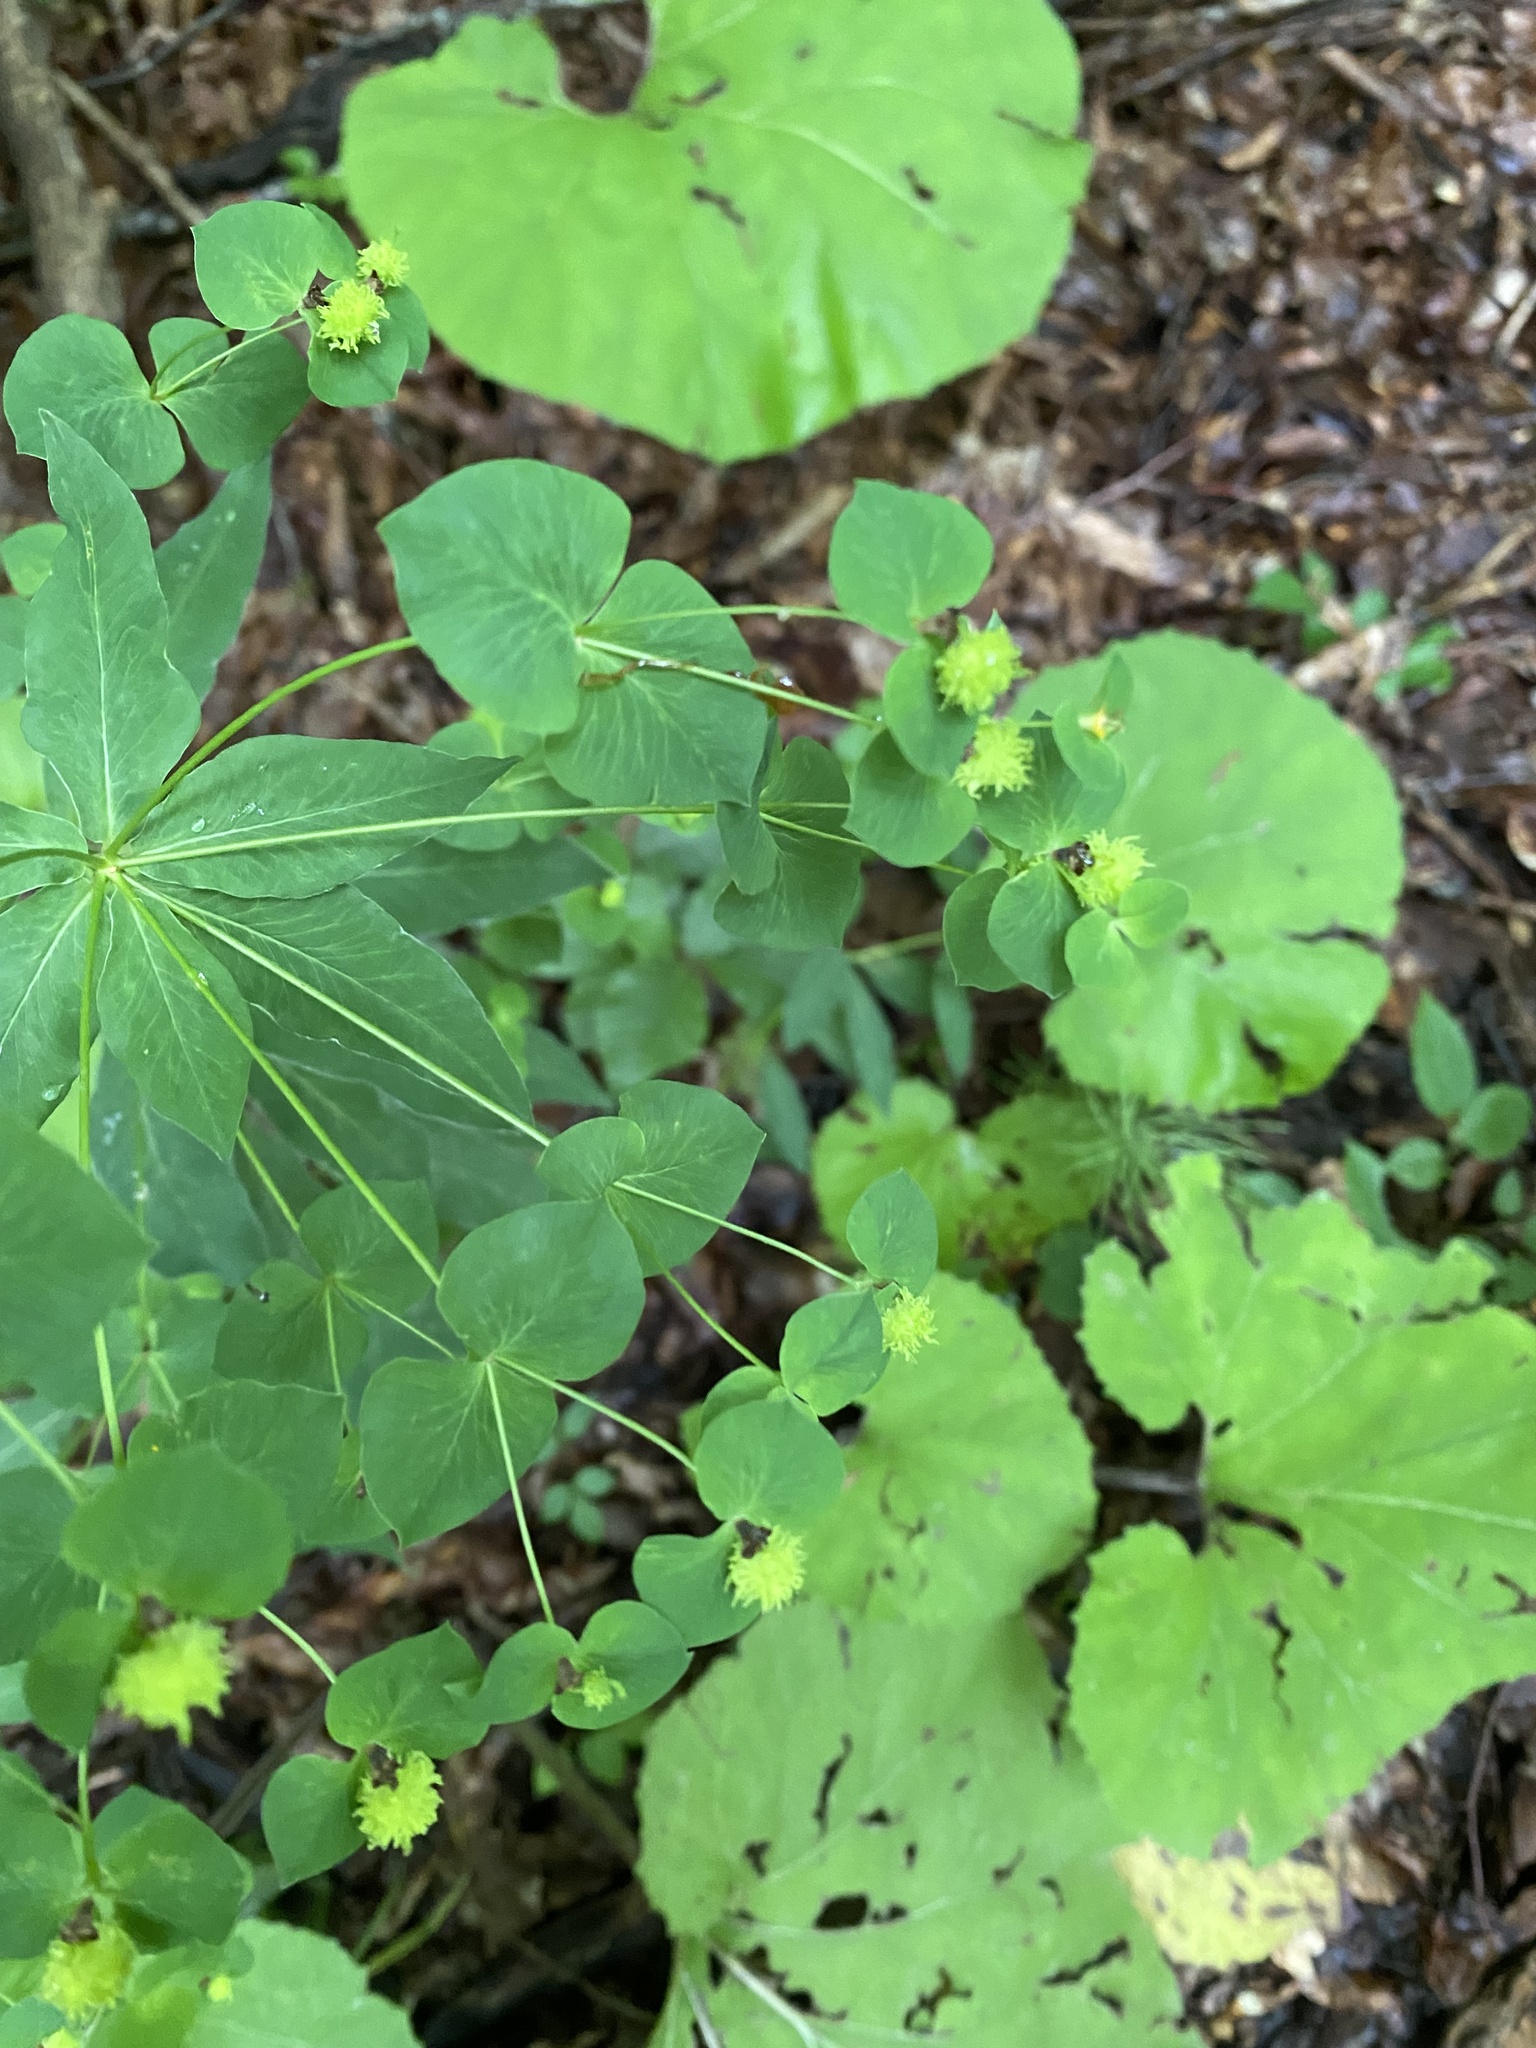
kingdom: Plantae
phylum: Tracheophyta
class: Magnoliopsida
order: Malpighiales
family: Euphorbiaceae
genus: Euphorbia
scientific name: Euphorbia squamosa
